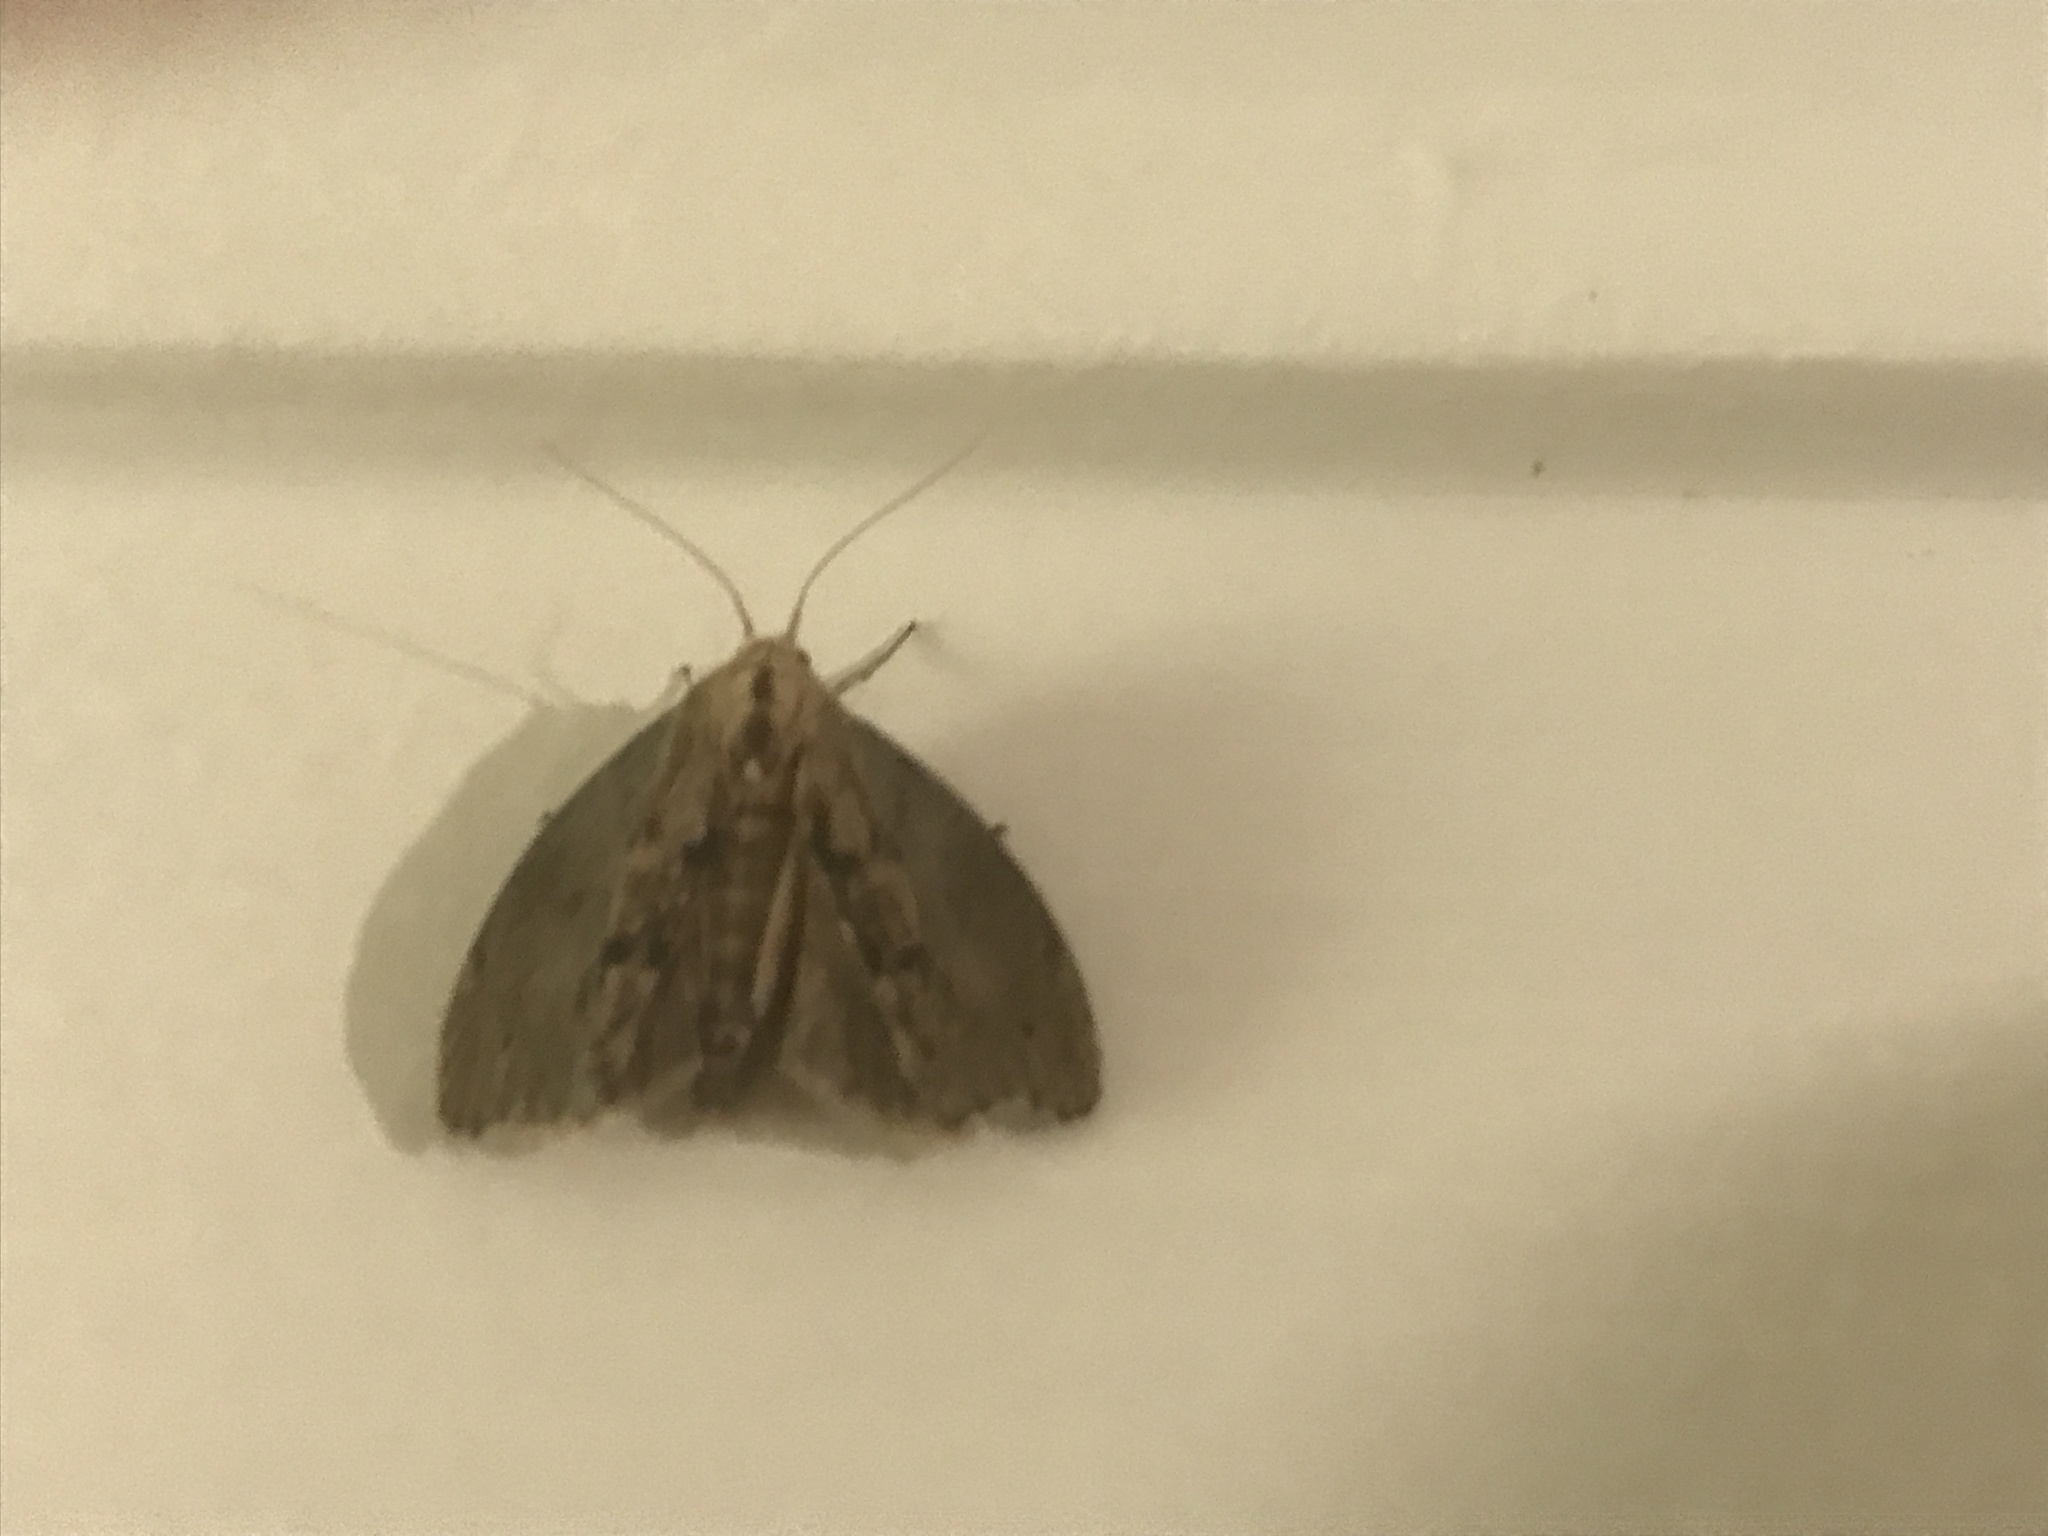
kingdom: Animalia
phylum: Arthropoda
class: Insecta
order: Lepidoptera
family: Erebidae
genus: Lymantria
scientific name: Lymantria dispar
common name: Gypsy moth
